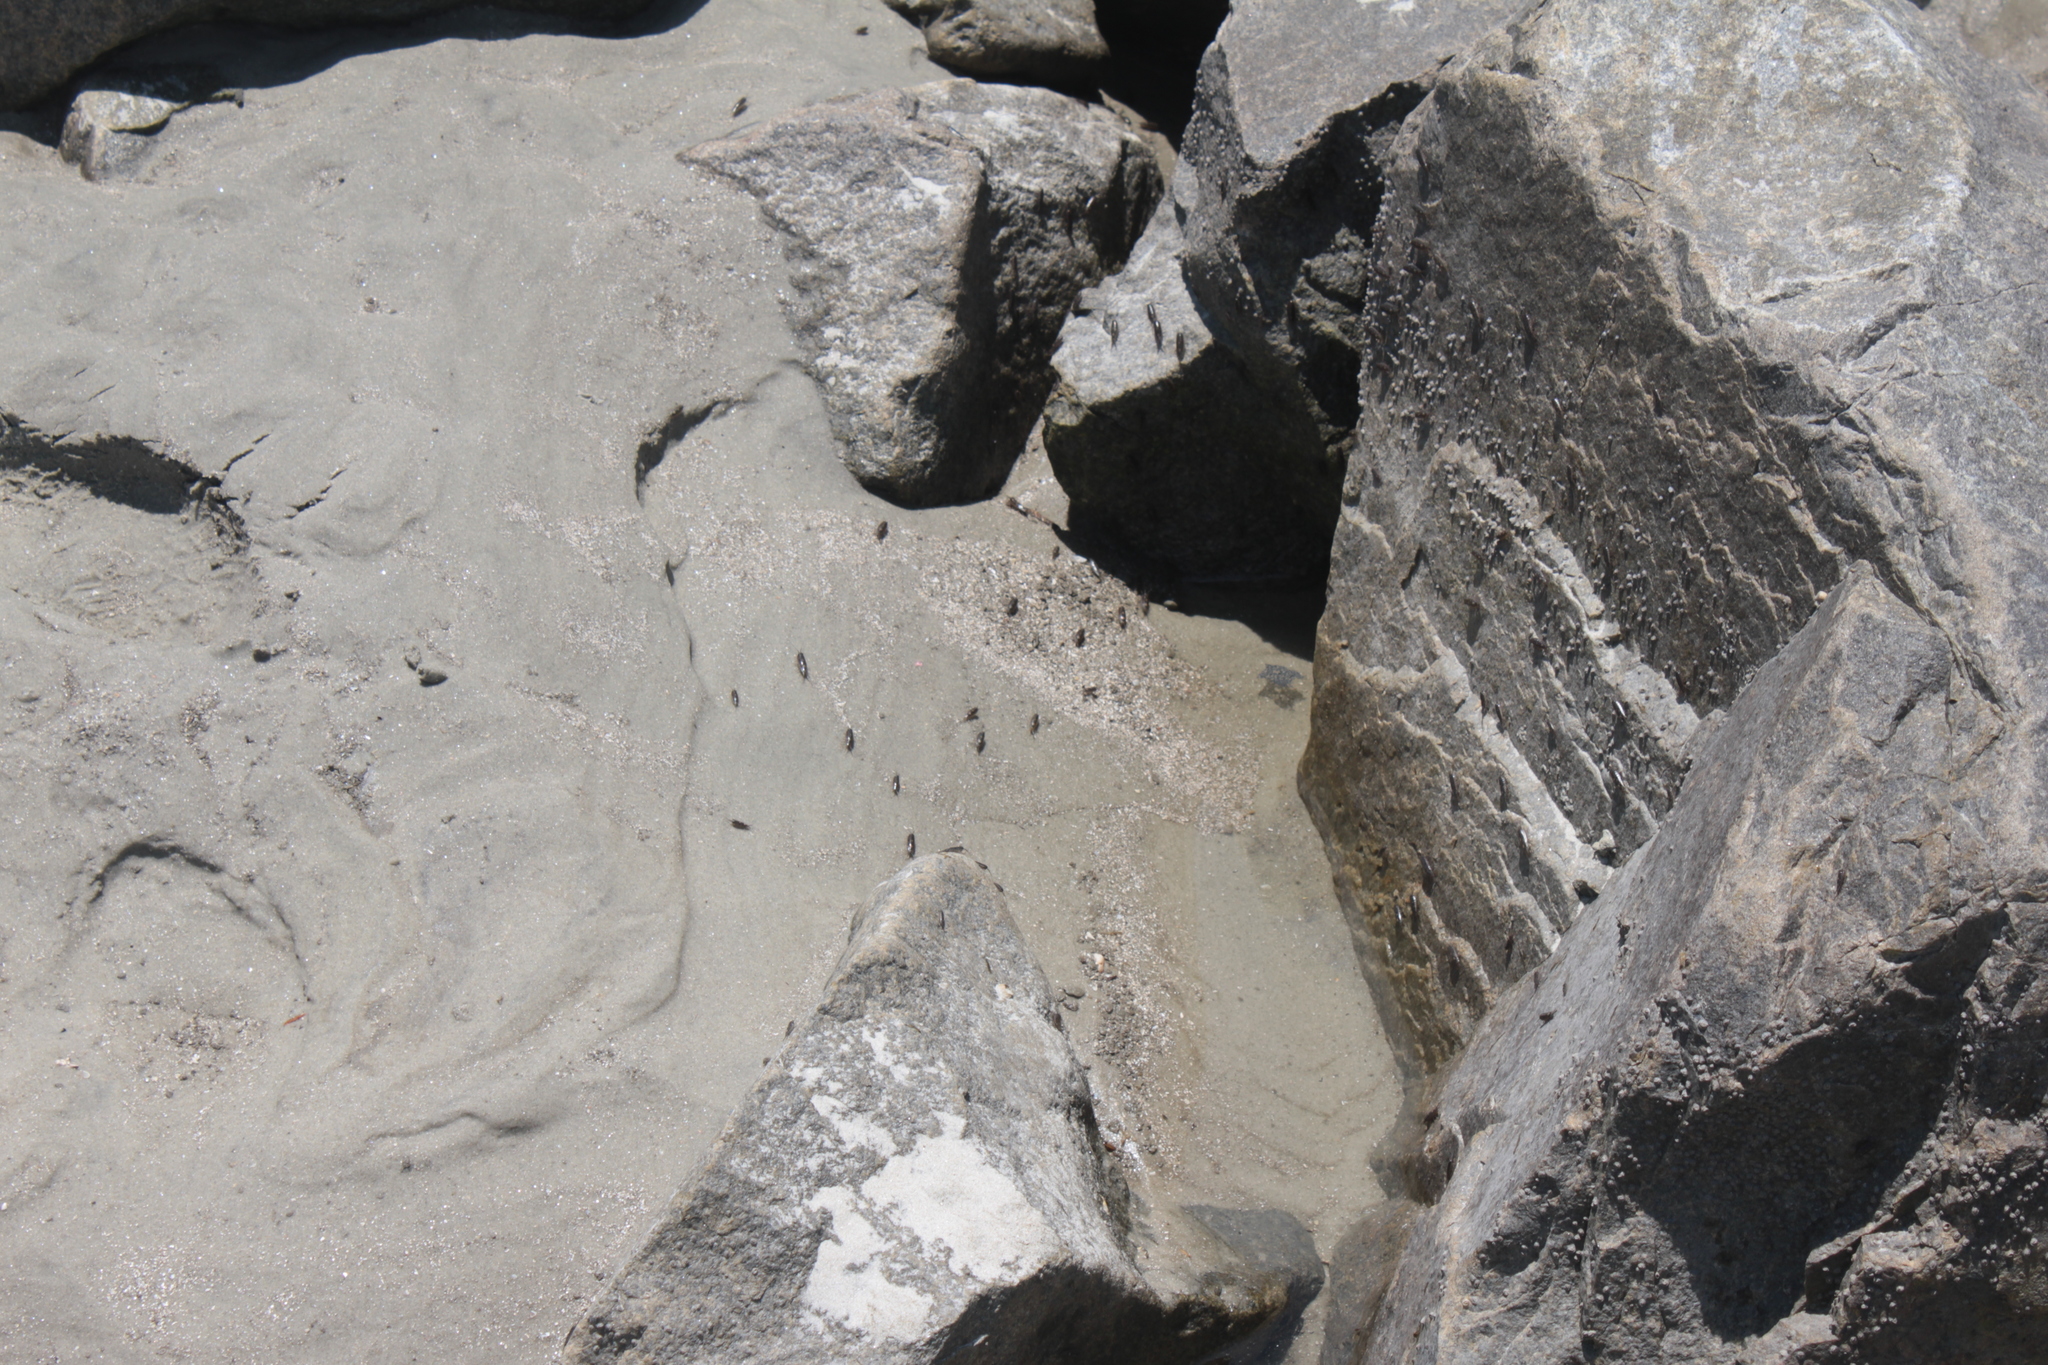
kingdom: Animalia
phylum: Arthropoda
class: Malacostraca
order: Isopoda
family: Ligiidae
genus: Ligia
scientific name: Ligia exotica
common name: Wharf roach
